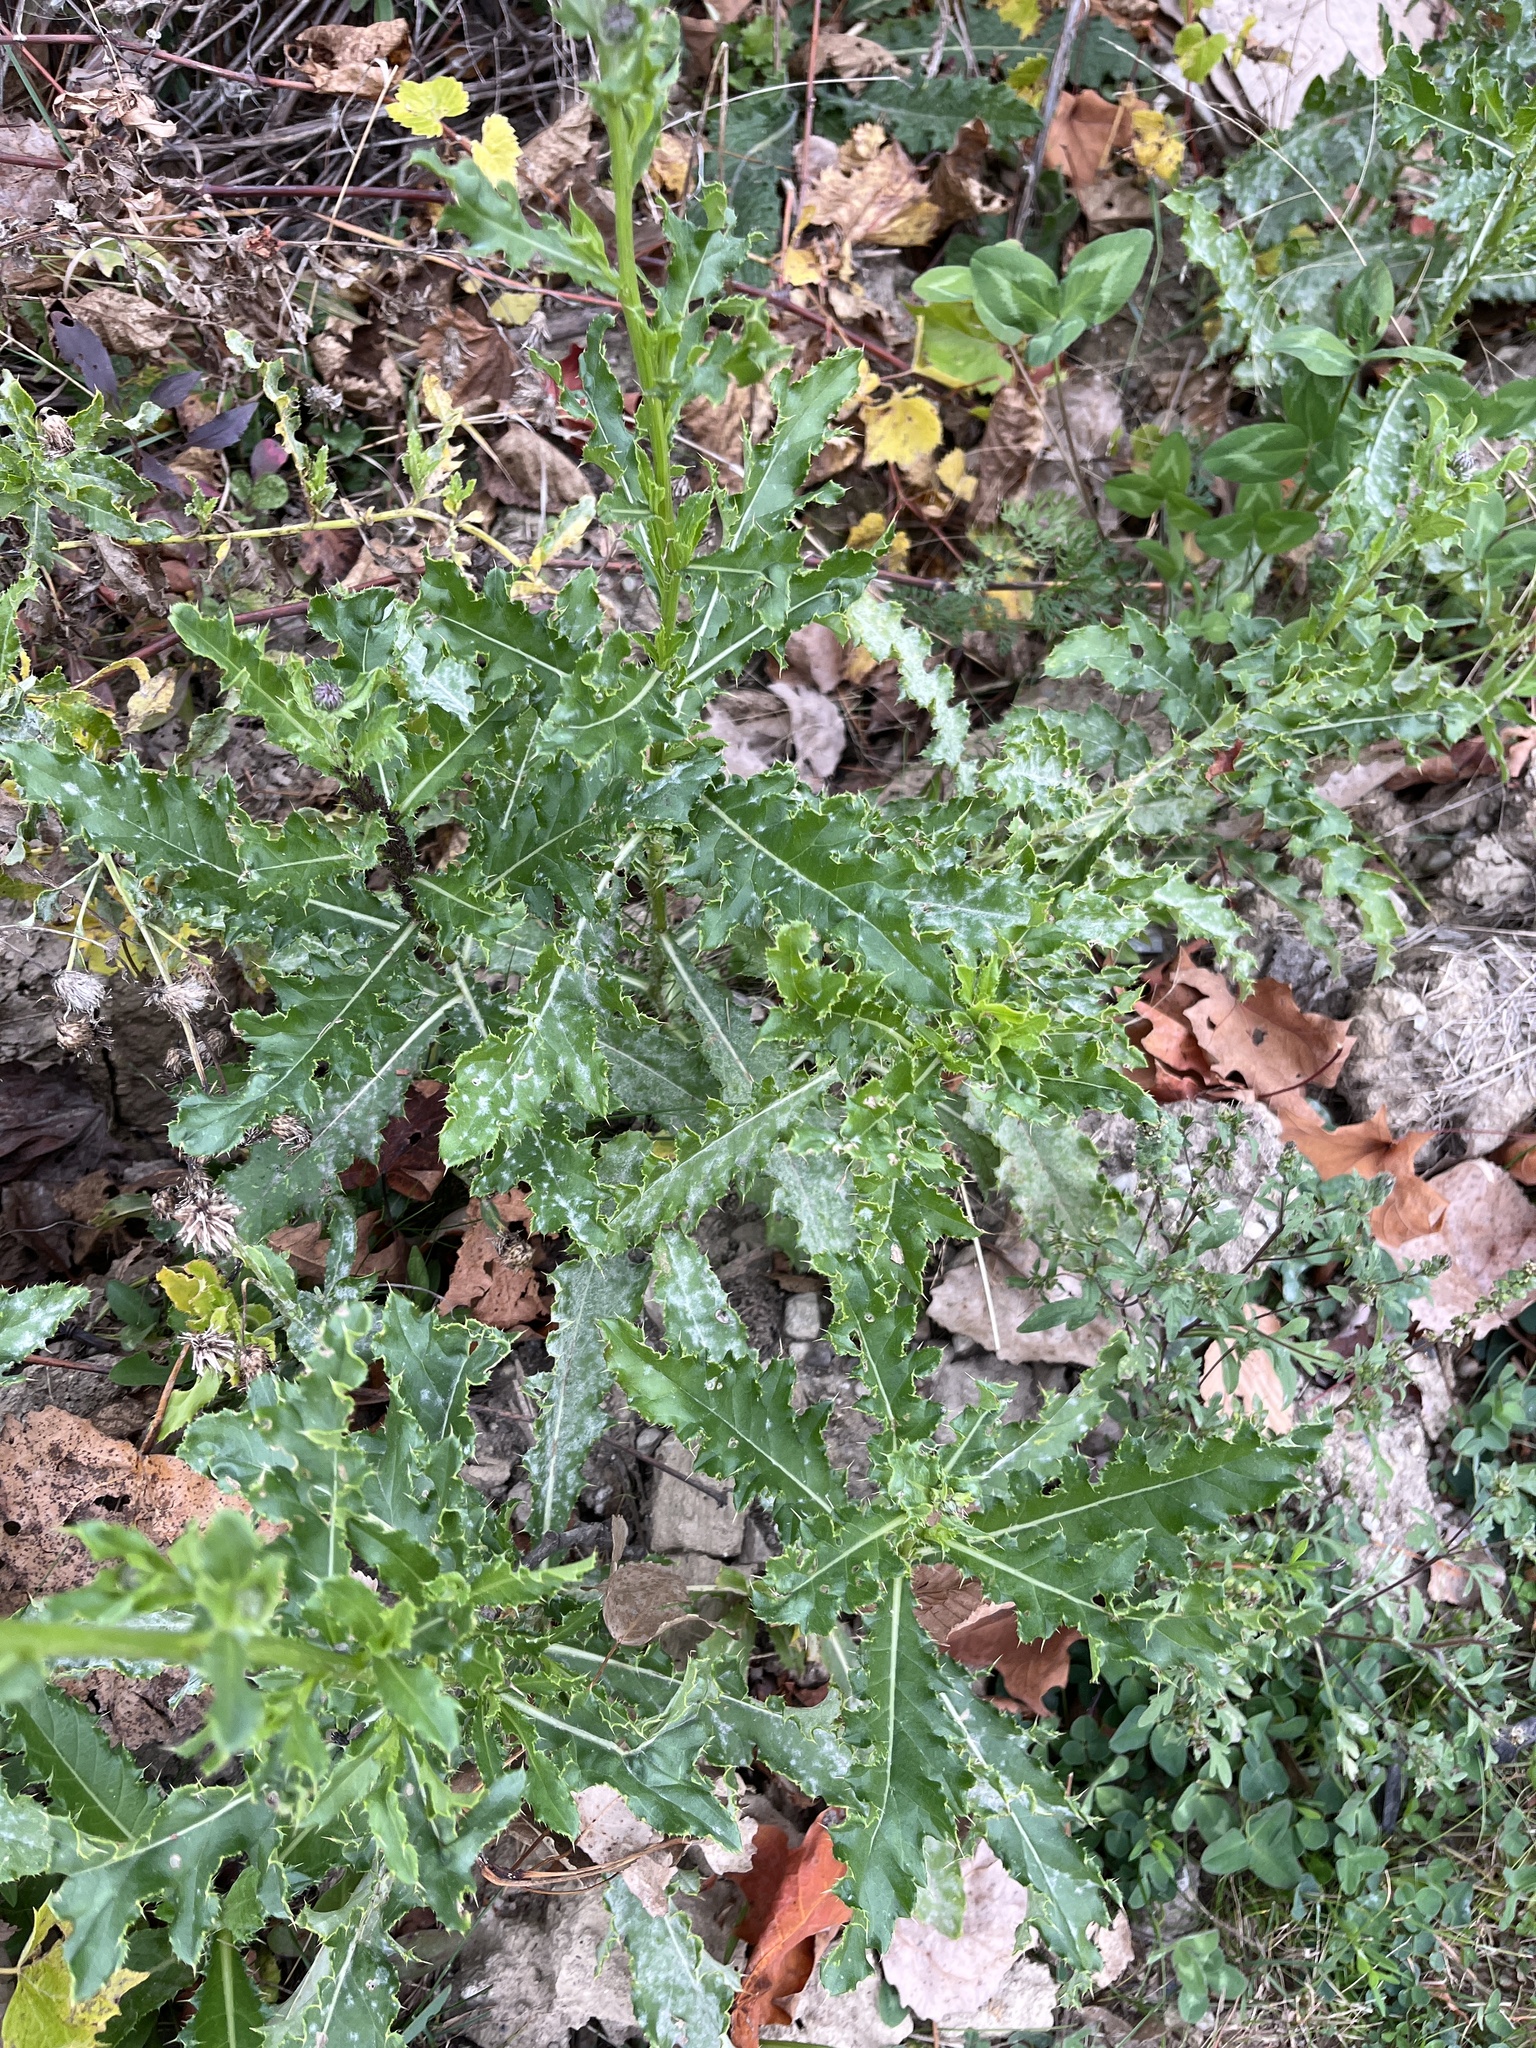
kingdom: Plantae
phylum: Tracheophyta
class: Magnoliopsida
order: Asterales
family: Asteraceae
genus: Cirsium
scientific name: Cirsium arvense
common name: Creeping thistle
